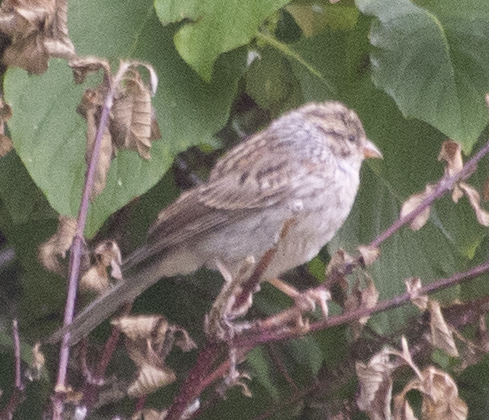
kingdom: Animalia
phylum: Chordata
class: Aves
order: Passeriformes
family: Passerellidae
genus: Spizella
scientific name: Spizella passerina
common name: Chipping sparrow
